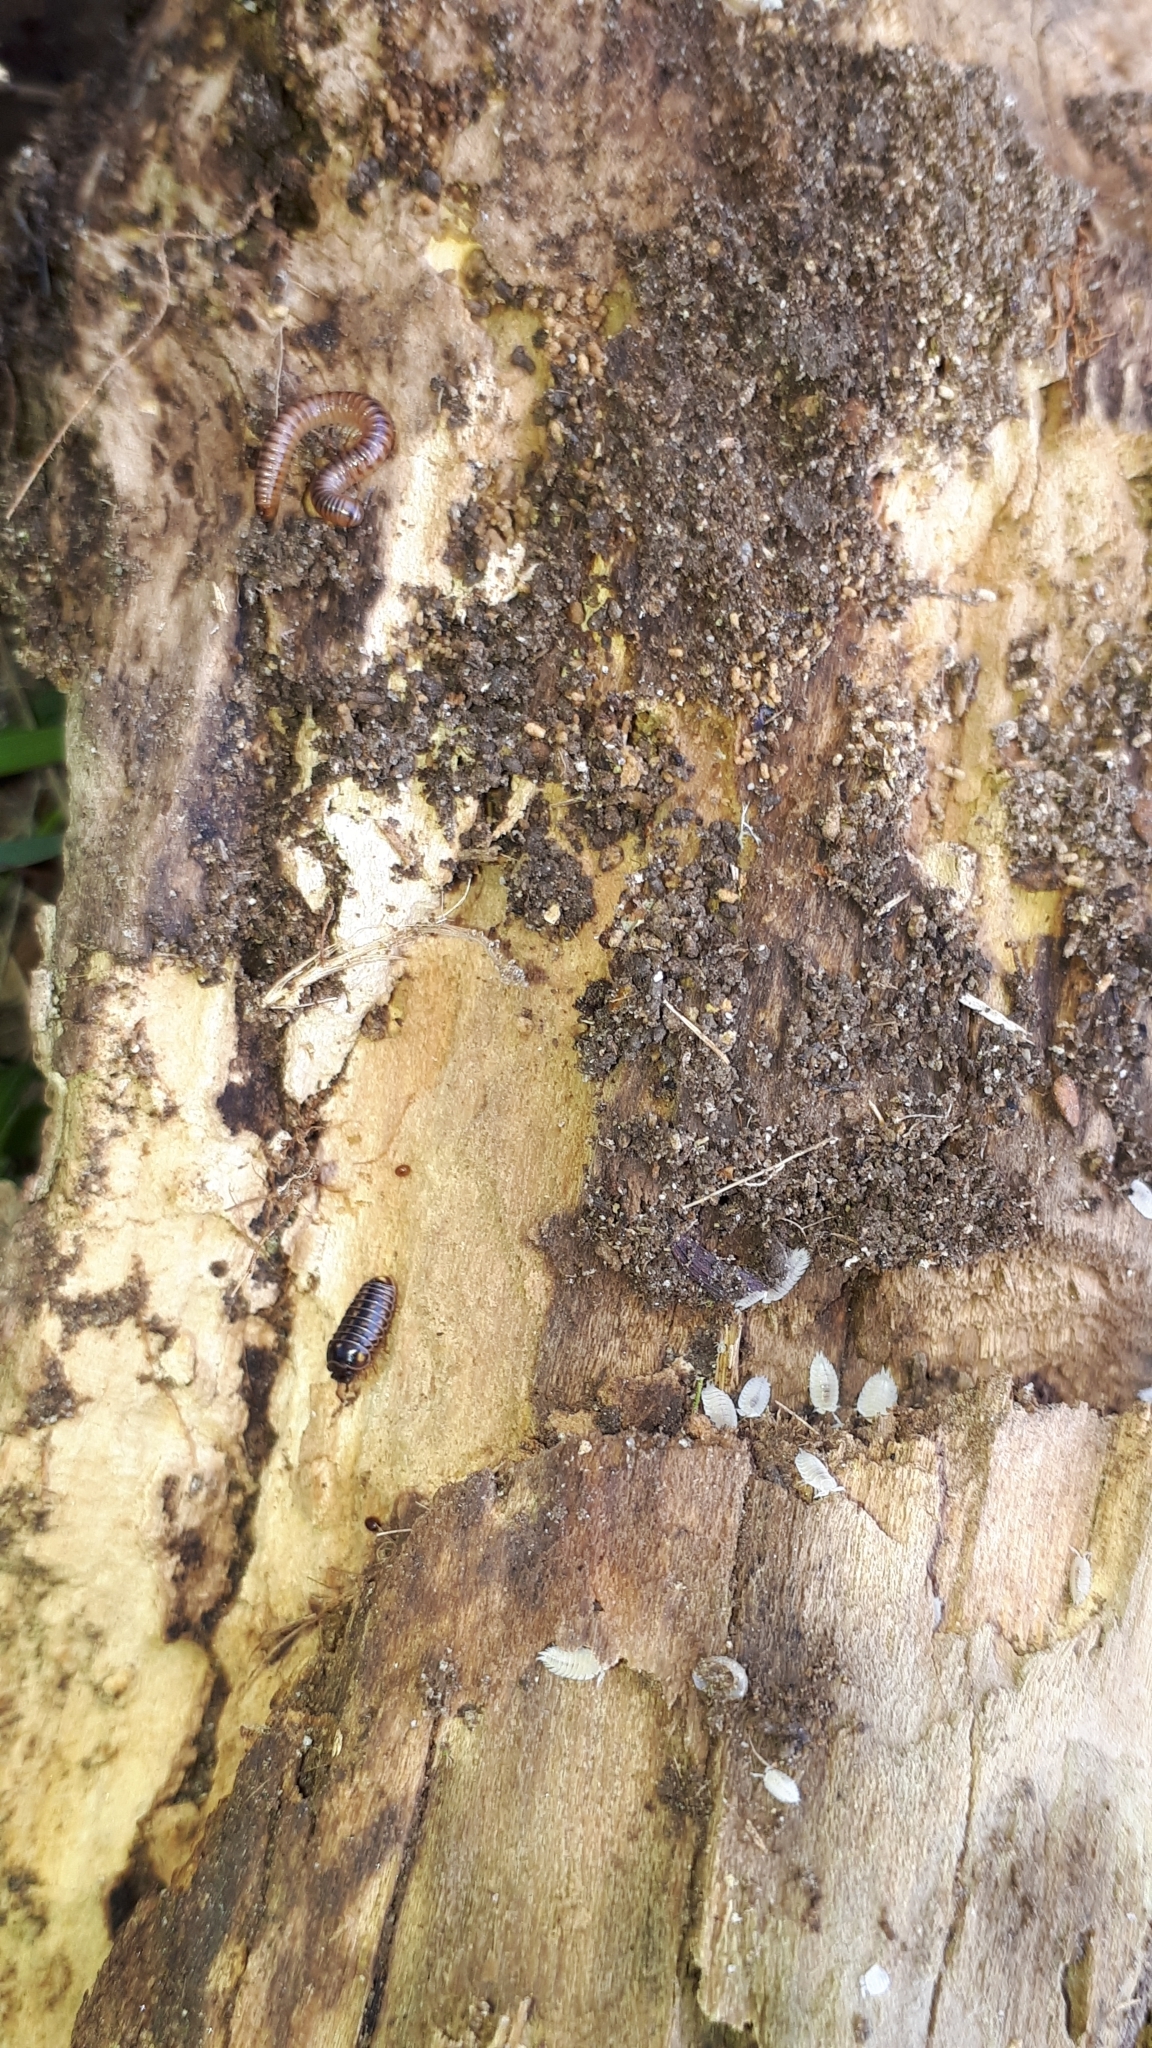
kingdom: Animalia
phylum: Arthropoda
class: Diplopoda
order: Glomerida
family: Glomeridae
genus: Glomeris
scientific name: Glomeris hexasticha
